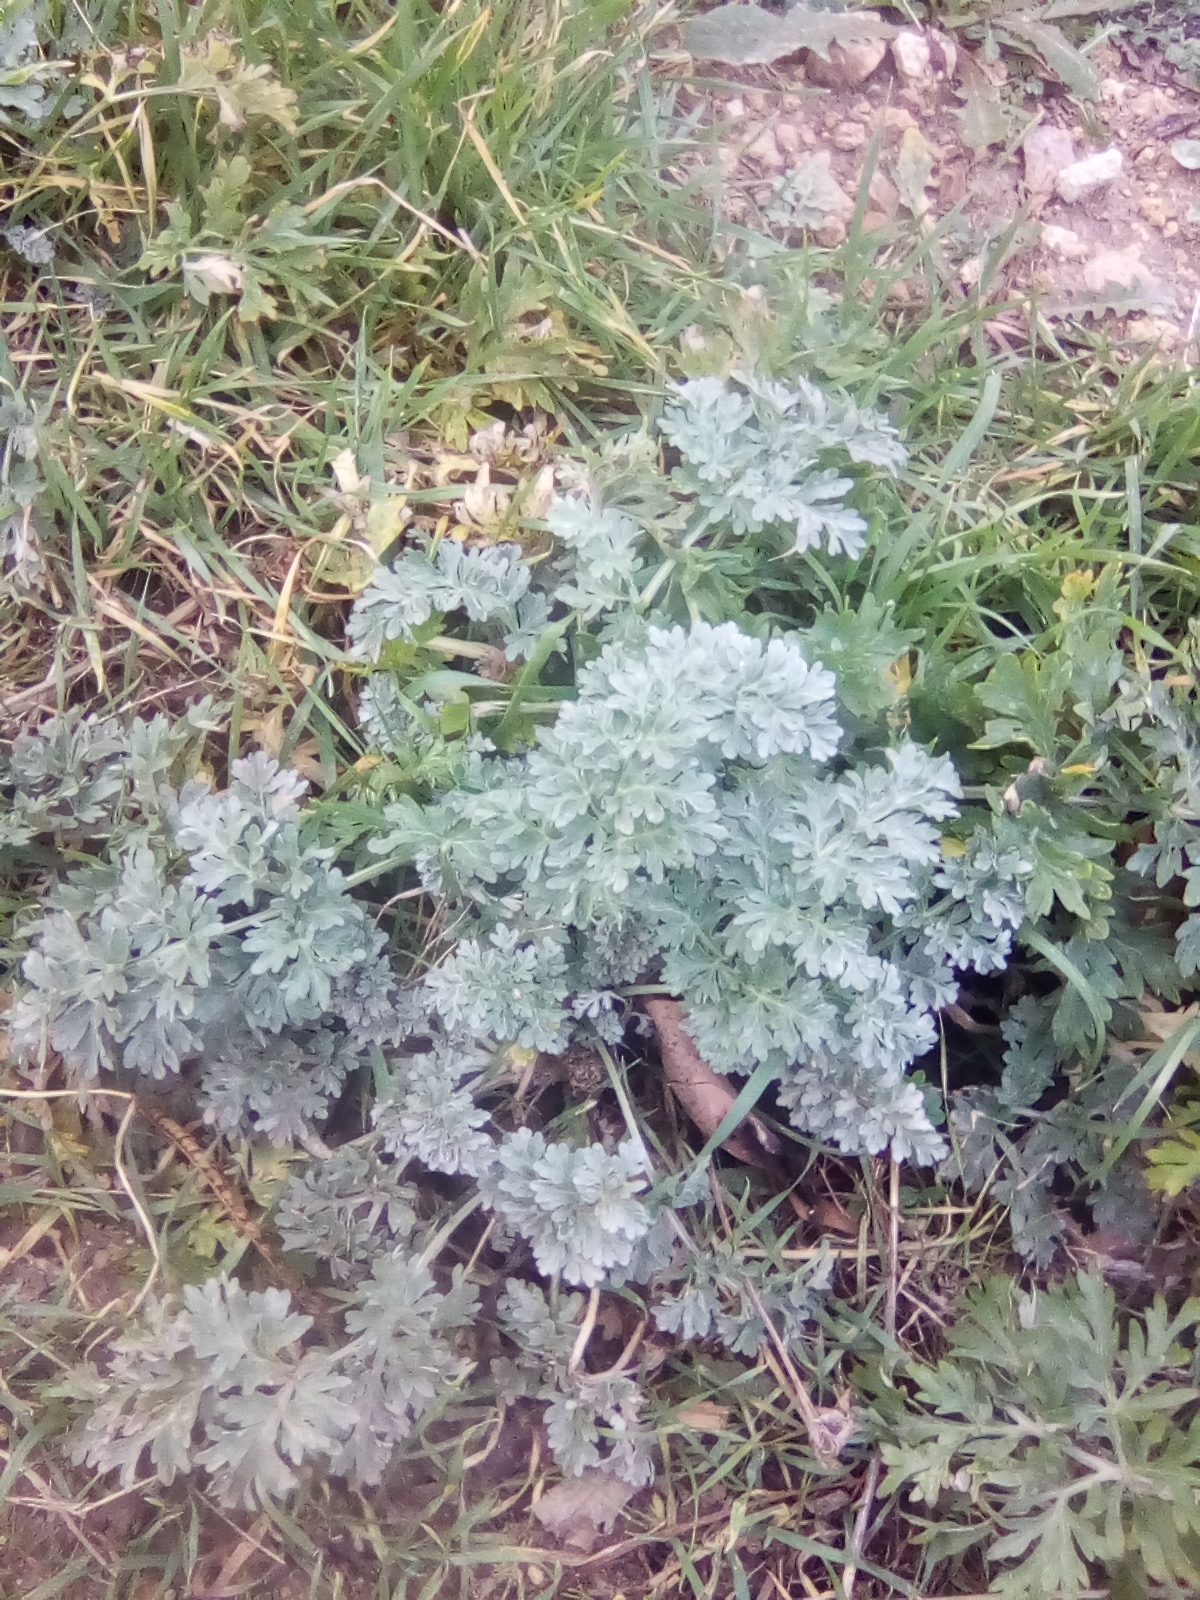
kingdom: Plantae
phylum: Tracheophyta
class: Magnoliopsida
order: Asterales
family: Asteraceae
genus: Artemisia
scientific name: Artemisia absinthium
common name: Wormwood
